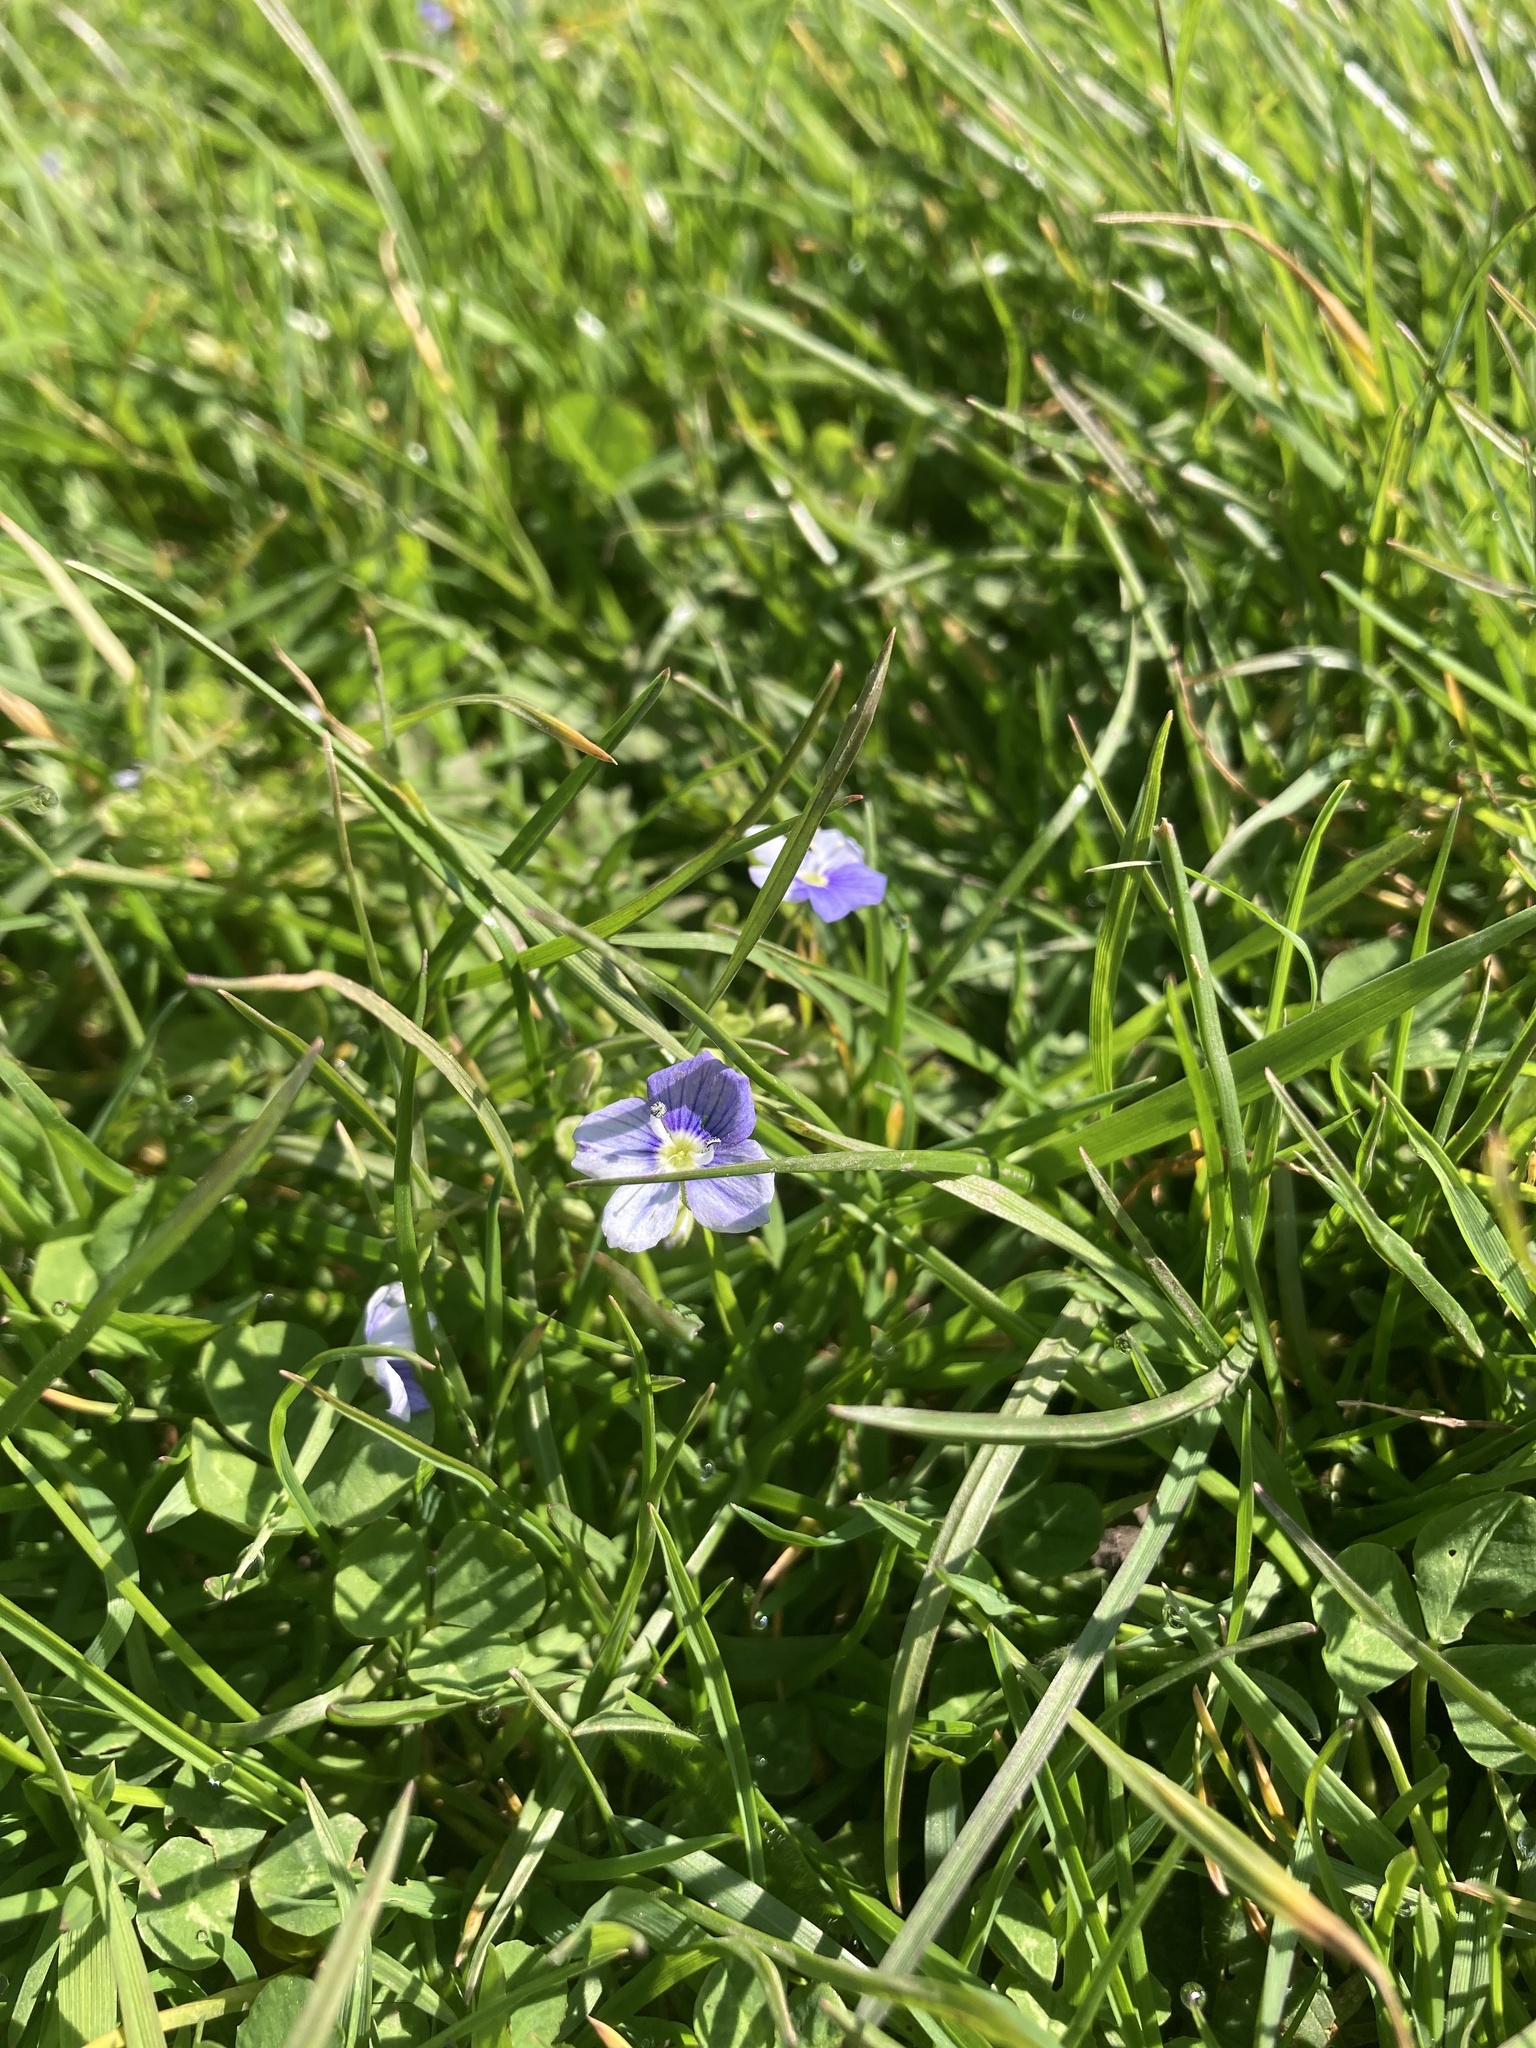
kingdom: Plantae
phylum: Tracheophyta
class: Magnoliopsida
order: Lamiales
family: Plantaginaceae
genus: Veronica
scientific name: Veronica filiformis
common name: Slender speedwell
